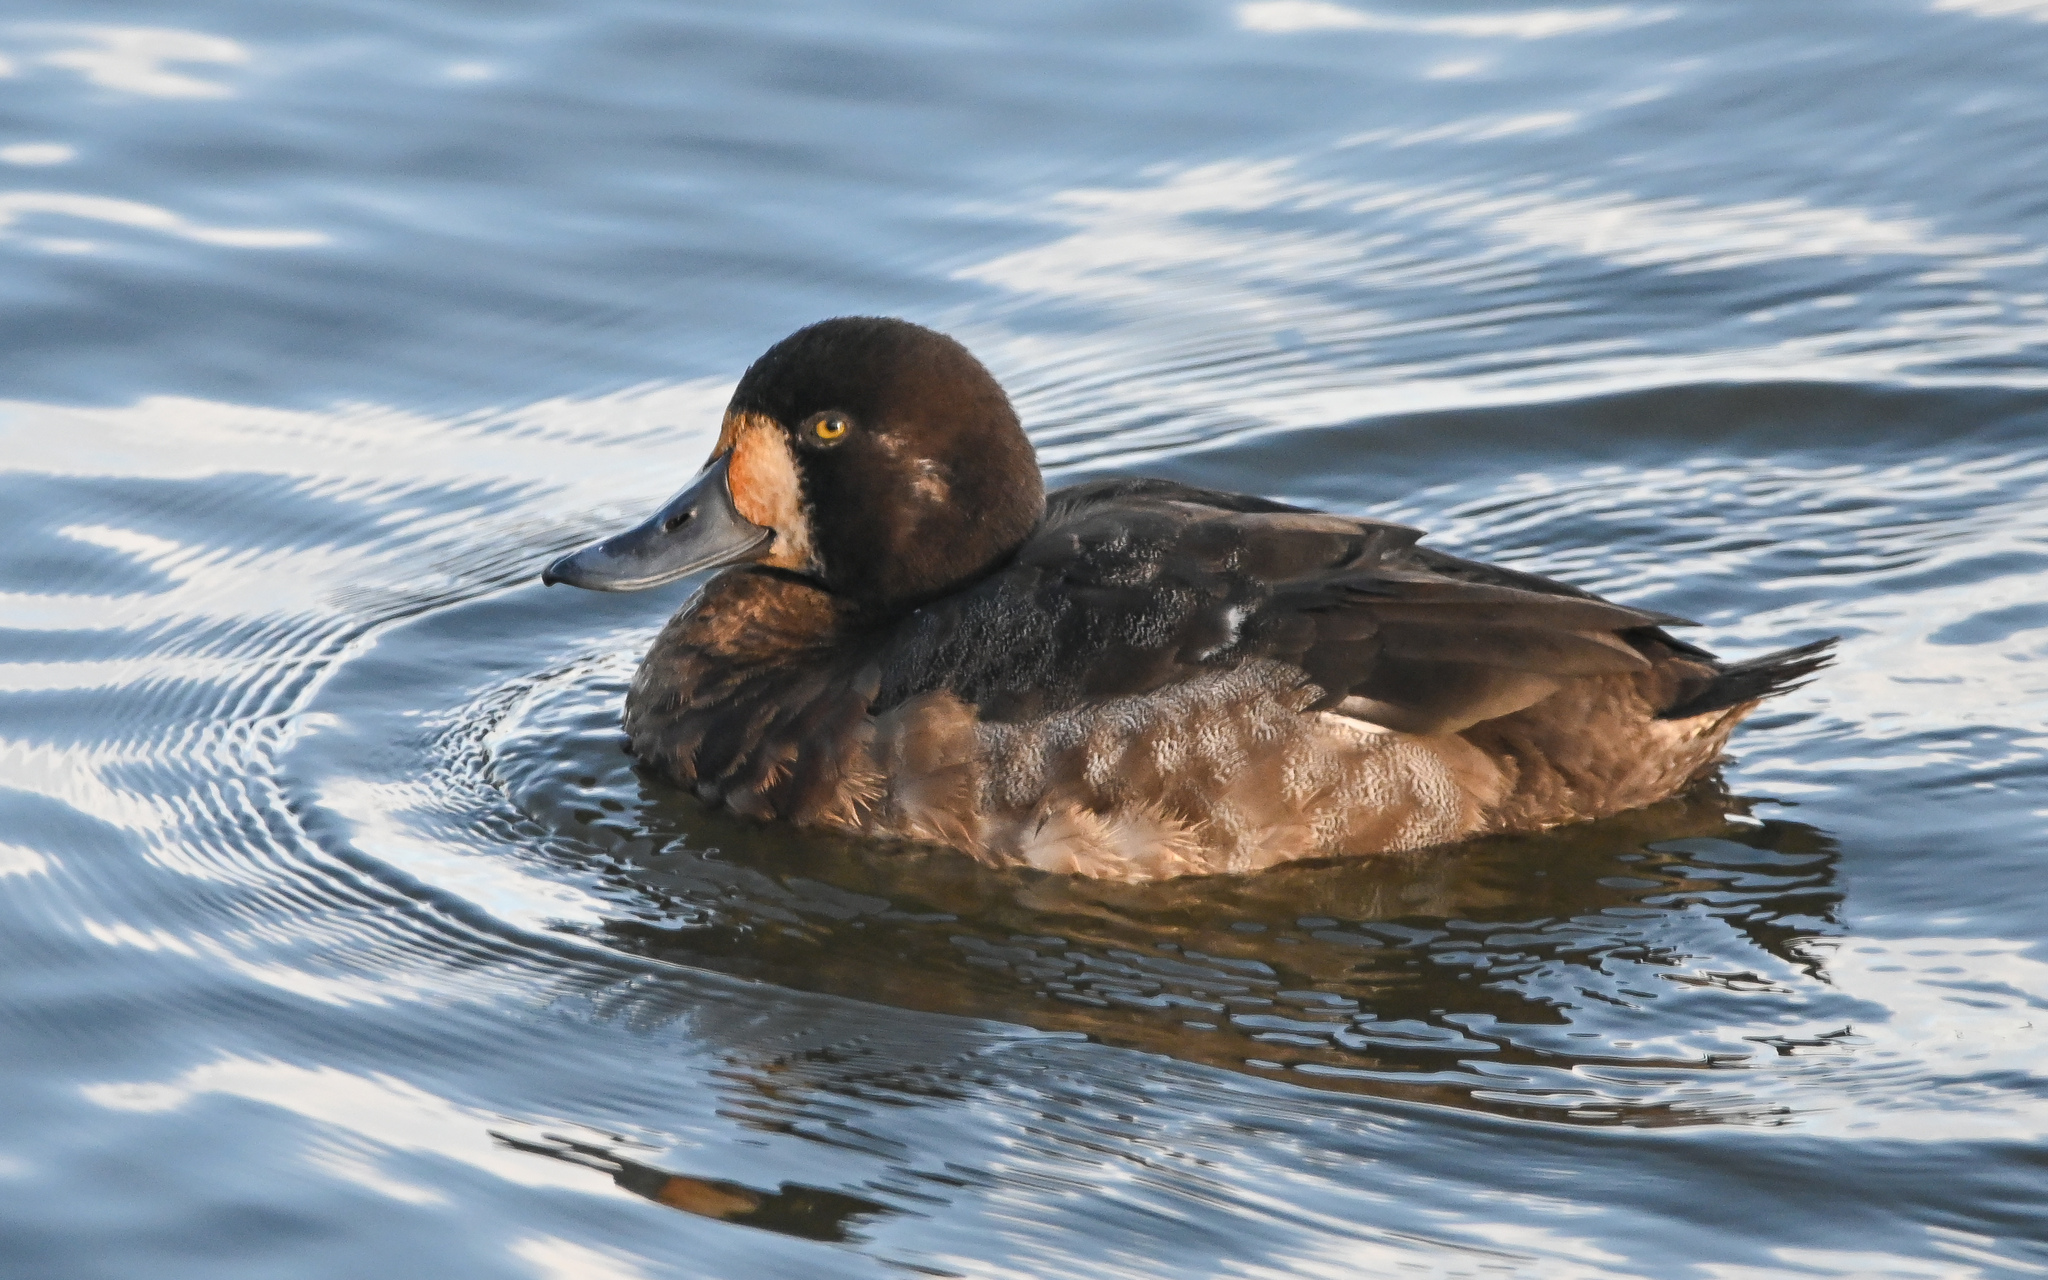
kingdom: Animalia
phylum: Chordata
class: Aves
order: Anseriformes
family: Anatidae
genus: Aythya
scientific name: Aythya marila
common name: Greater scaup
